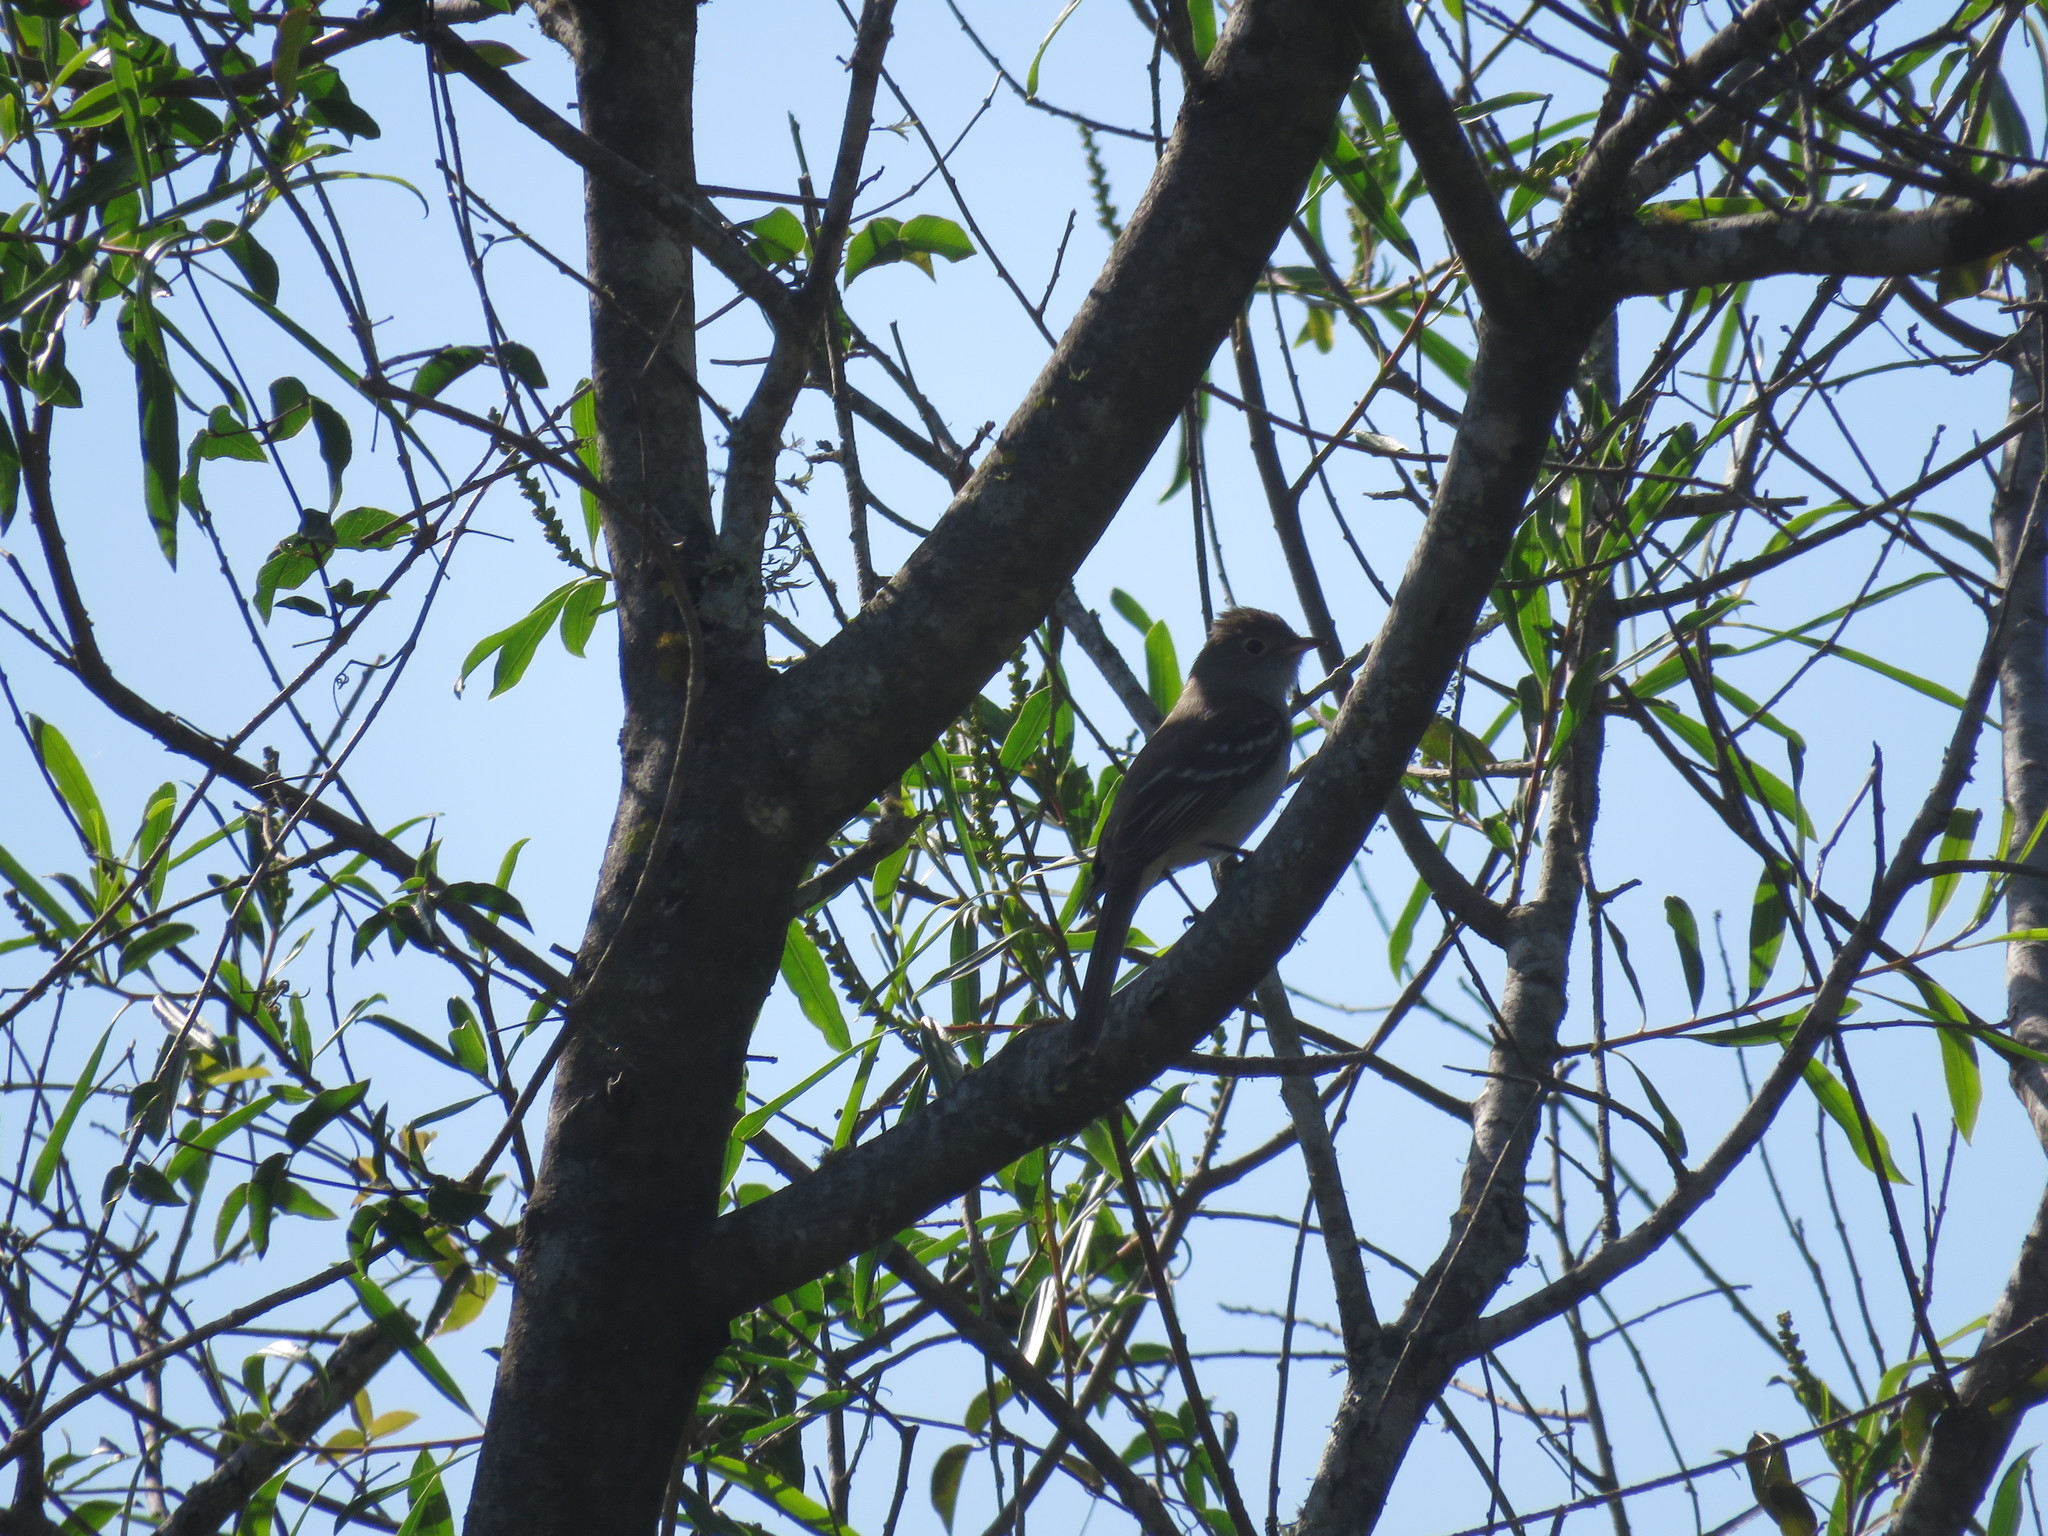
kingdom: Animalia
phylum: Chordata
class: Aves
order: Passeriformes
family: Tyrannidae
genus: Elaenia
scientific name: Elaenia parvirostris
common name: Small-billed elaenia
